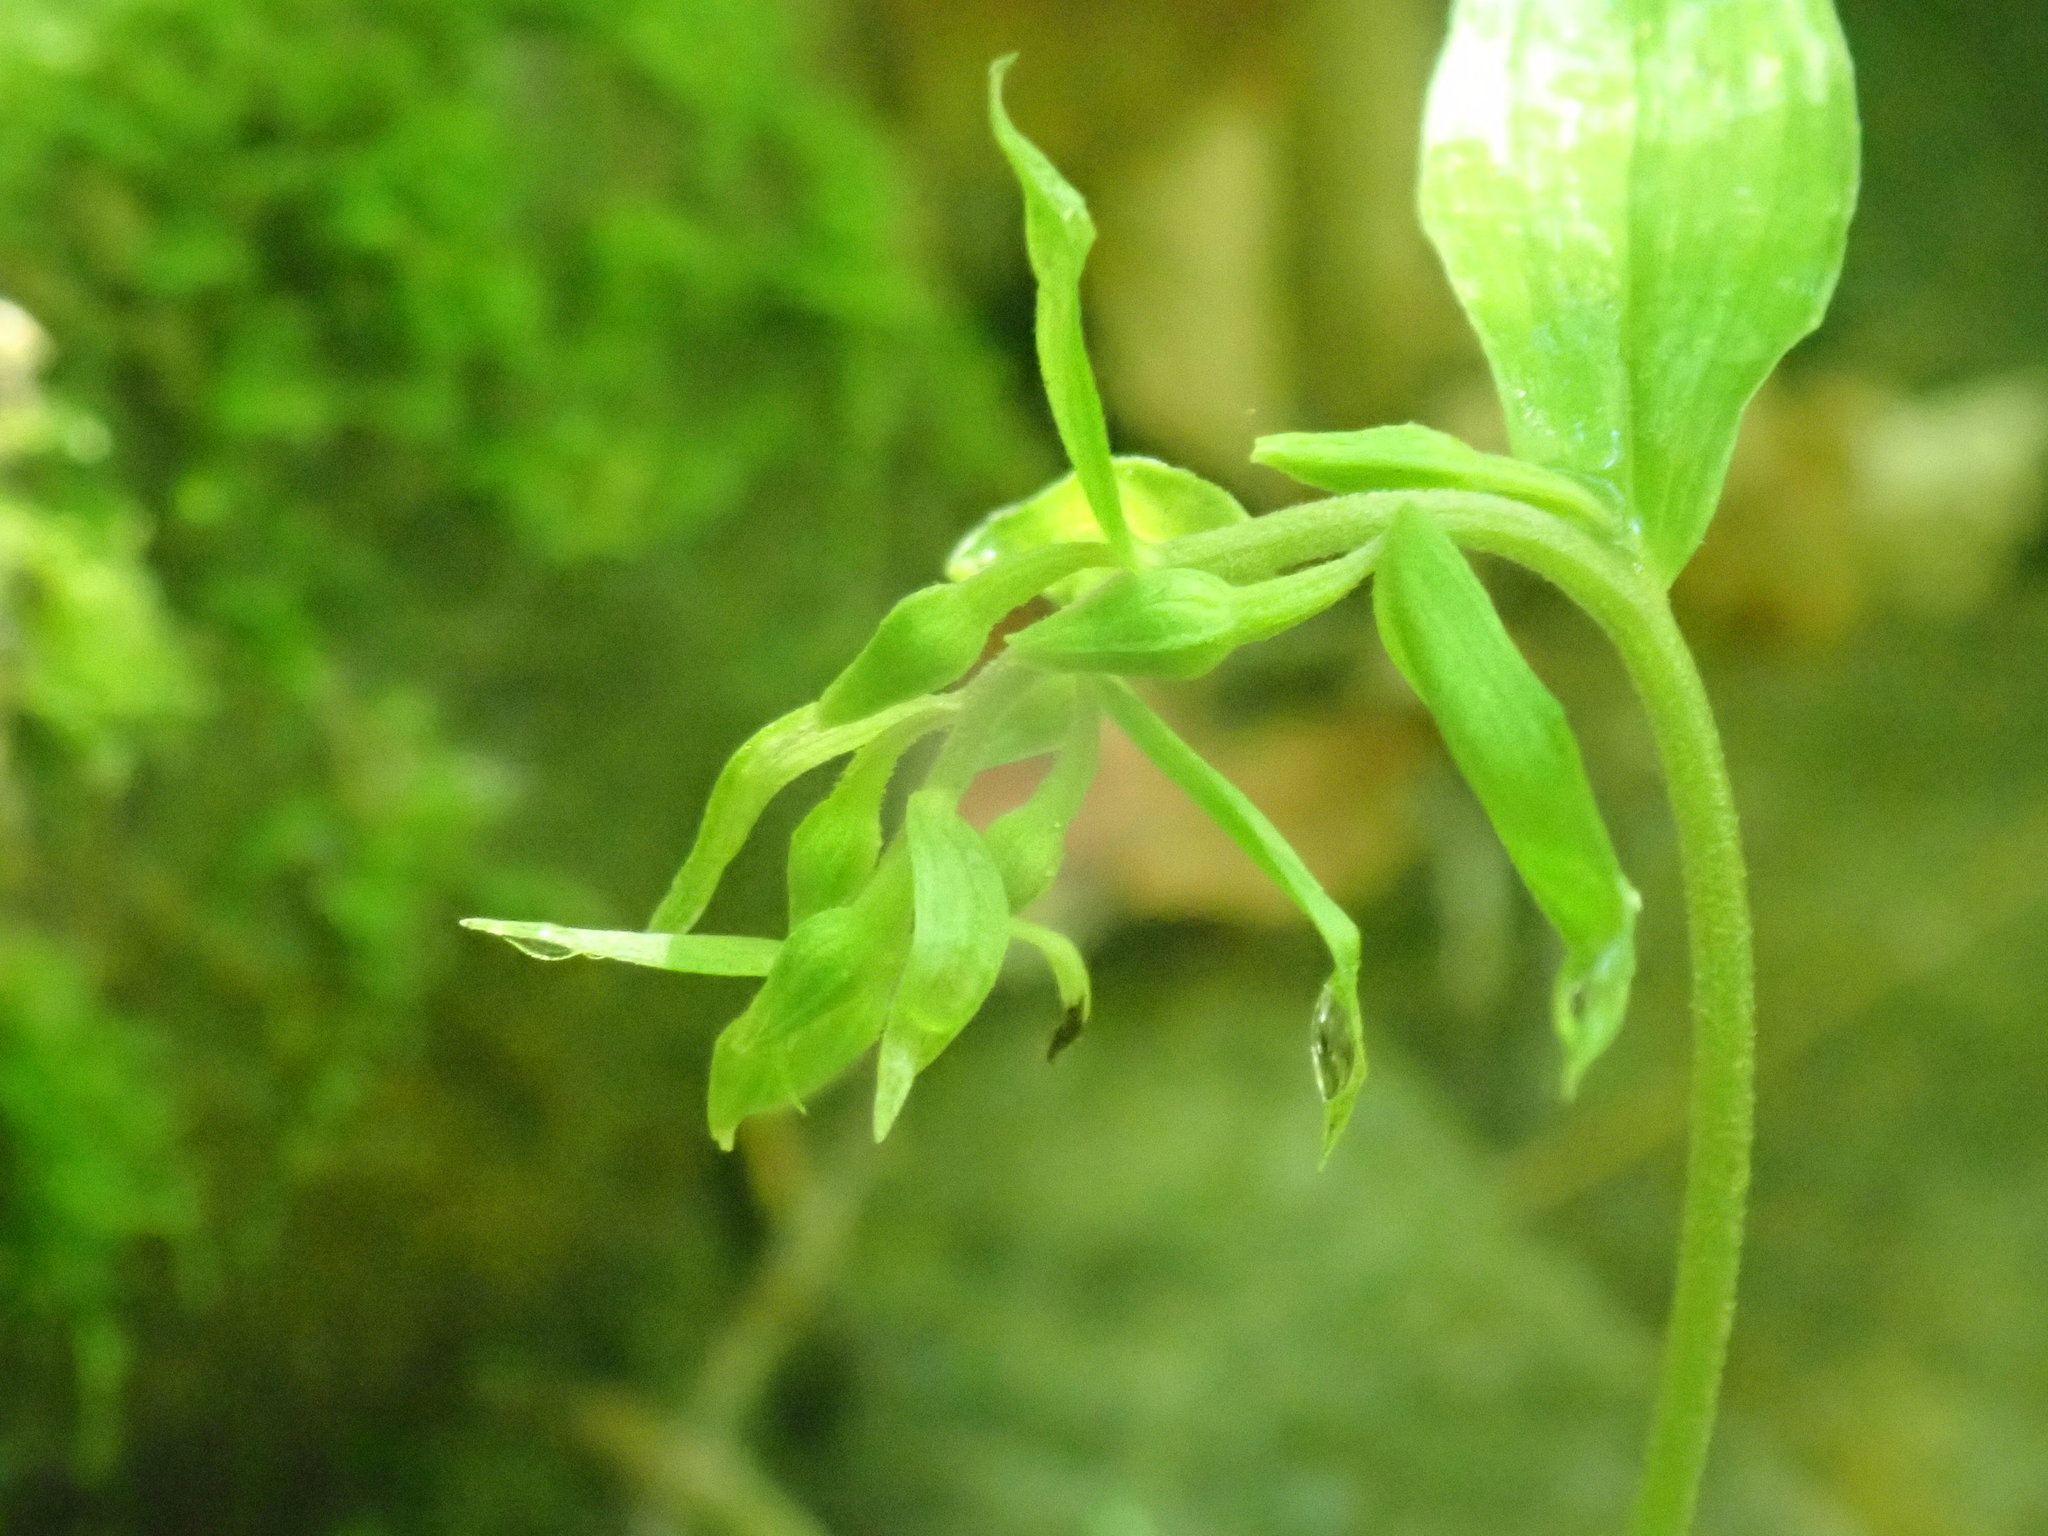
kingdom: Plantae
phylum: Tracheophyta
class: Liliopsida
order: Asparagales
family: Orchidaceae
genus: Epipactis
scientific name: Epipactis helleborine
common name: Broad-leaved helleborine
